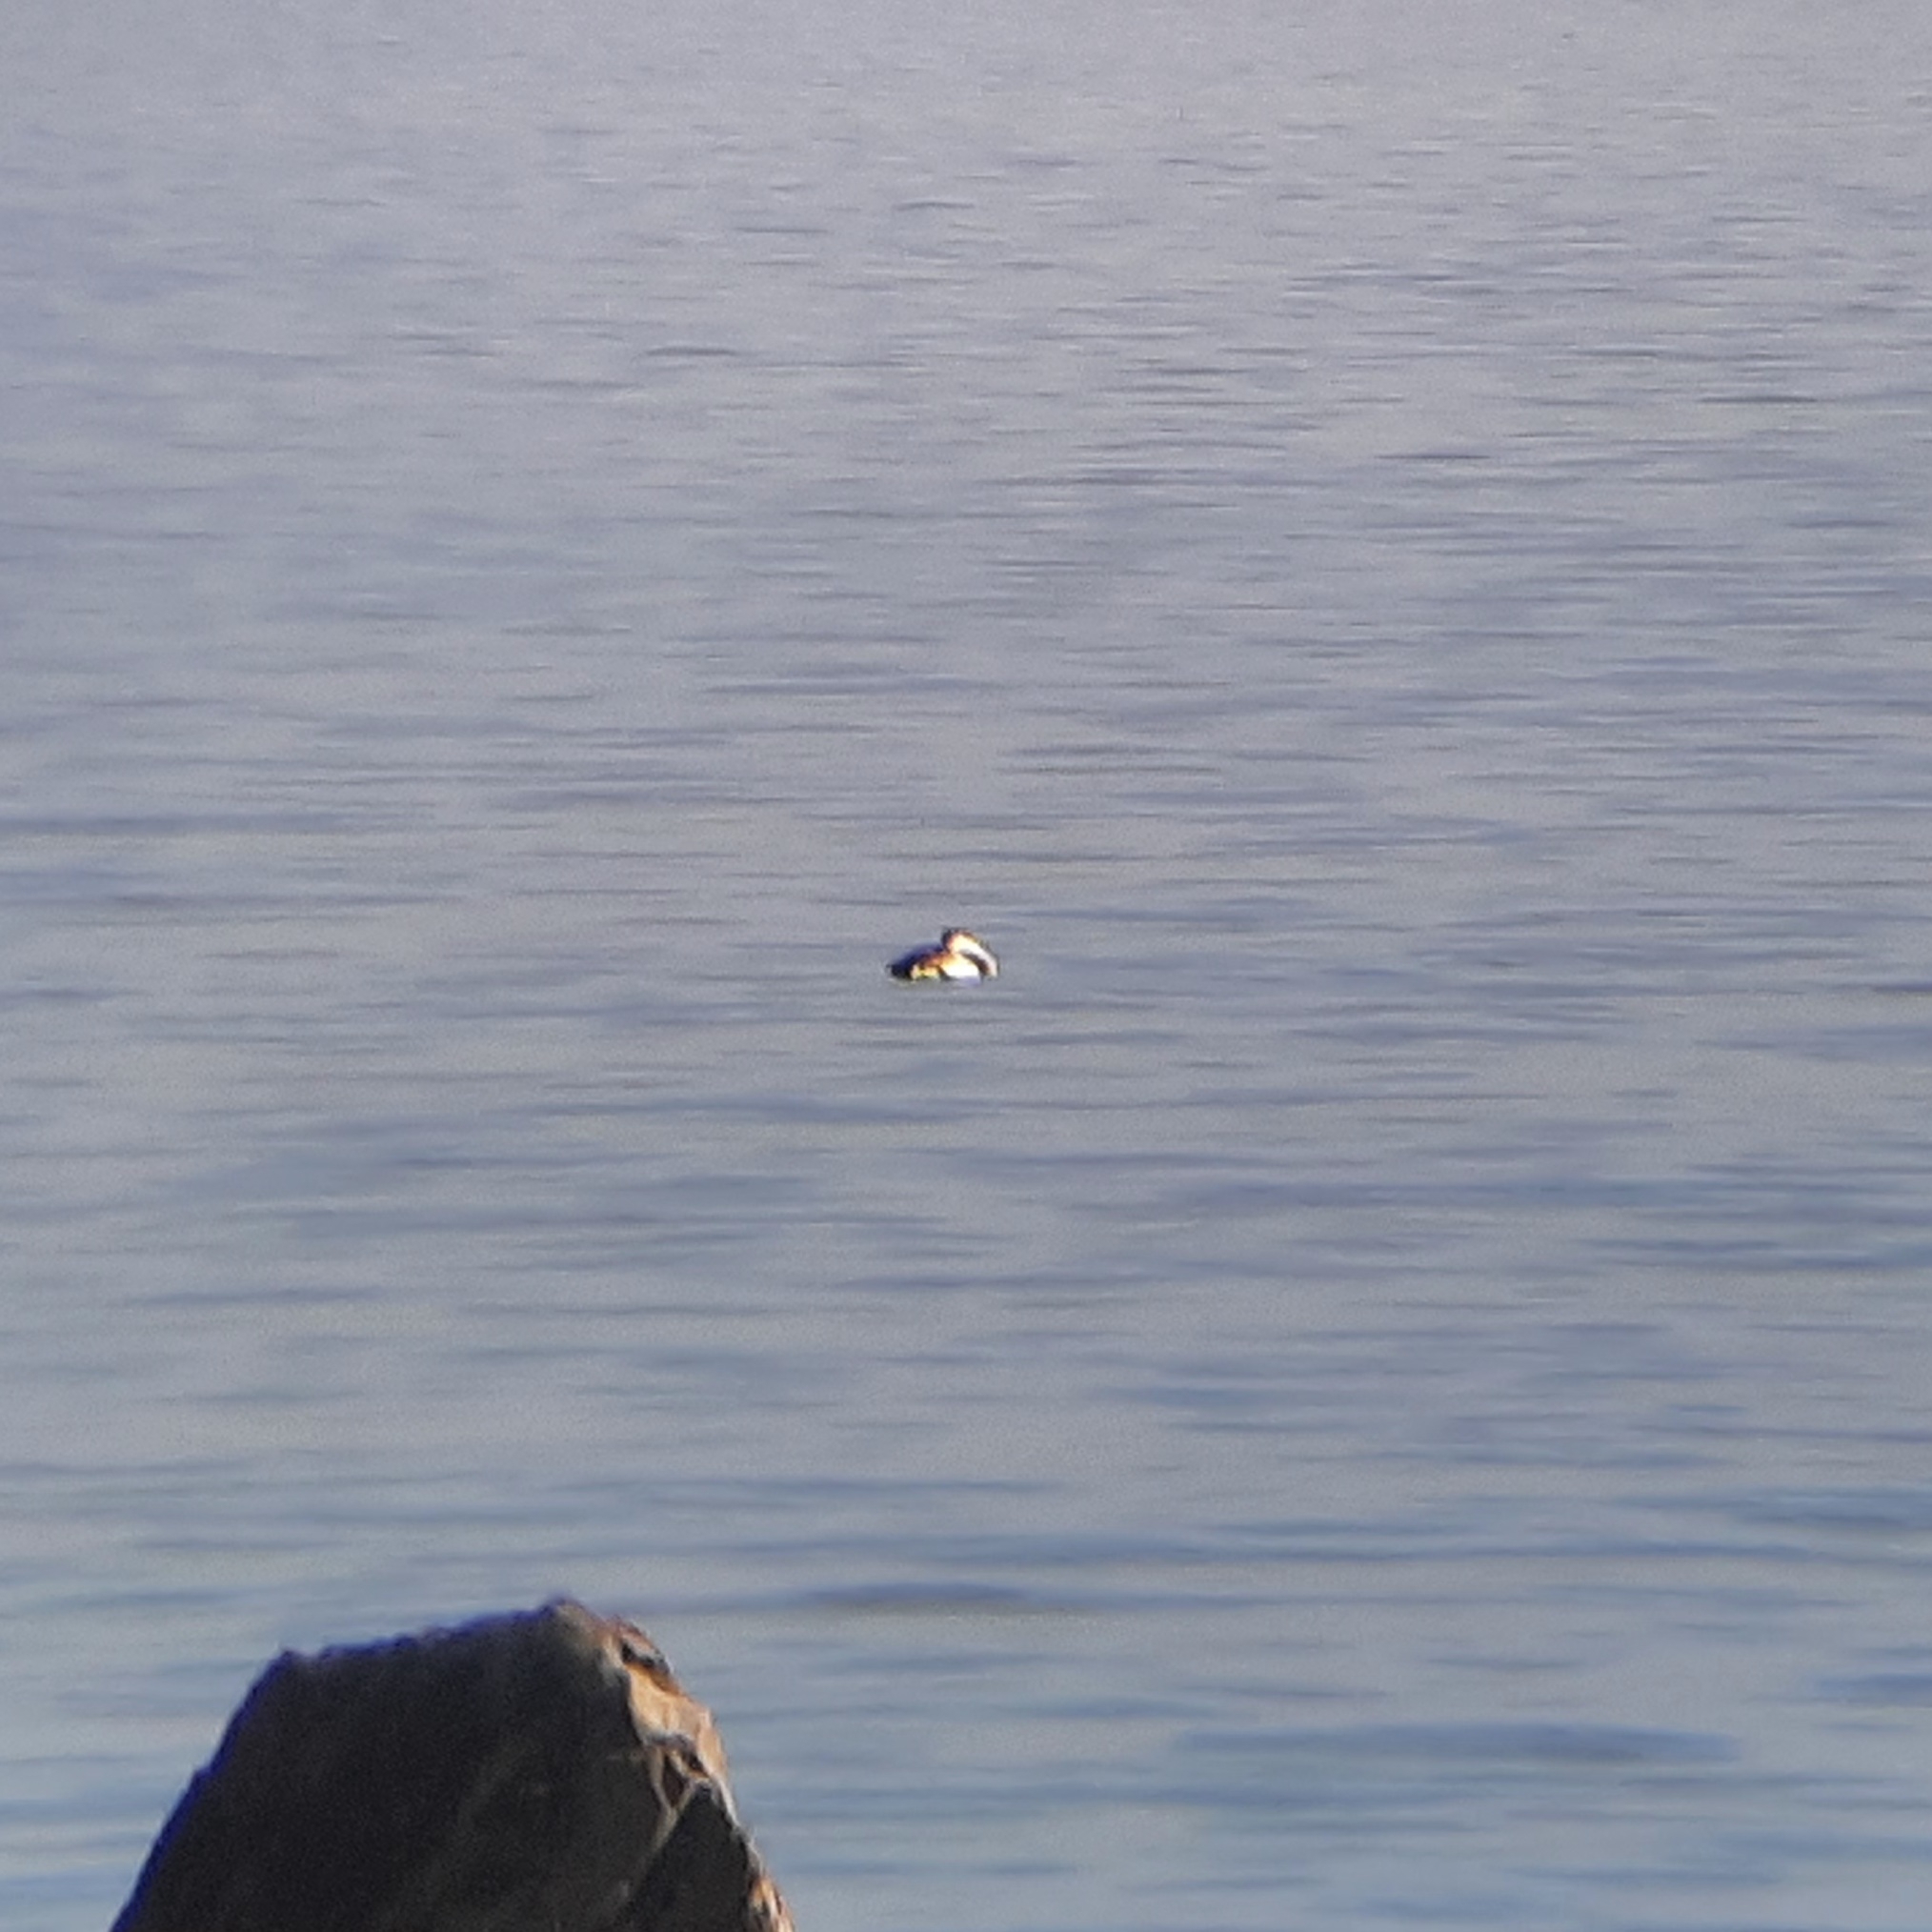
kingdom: Animalia
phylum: Chordata
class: Aves
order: Gaviiformes
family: Gaviidae
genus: Gavia
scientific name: Gavia arctica
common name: Black-throated loon
